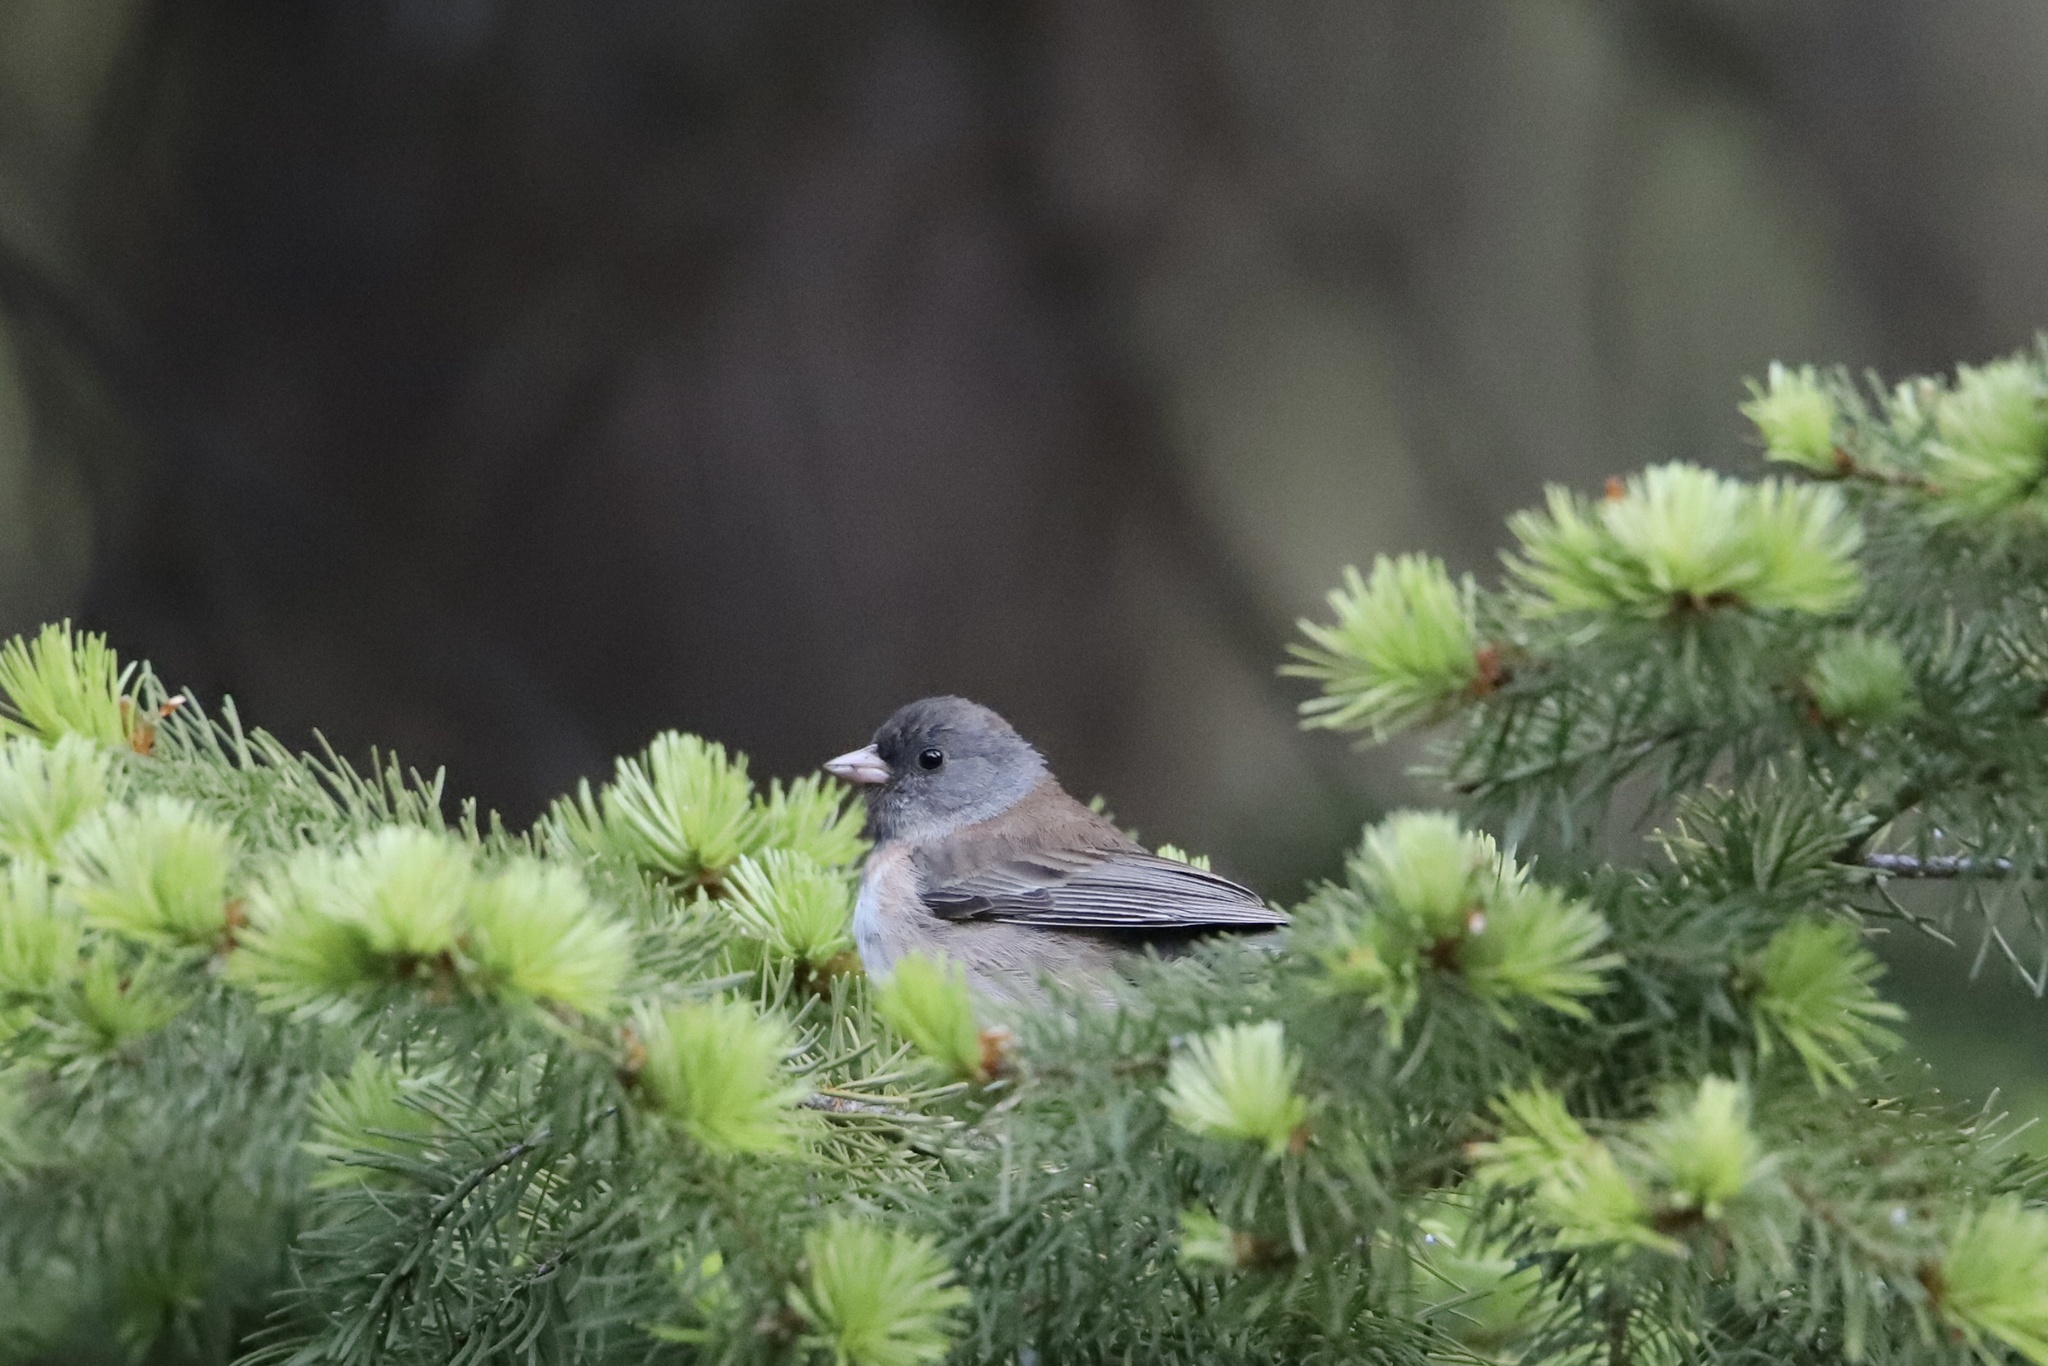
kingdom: Animalia
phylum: Chordata
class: Aves
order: Passeriformes
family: Passerellidae
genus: Junco
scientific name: Junco hyemalis
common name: Dark-eyed junco
